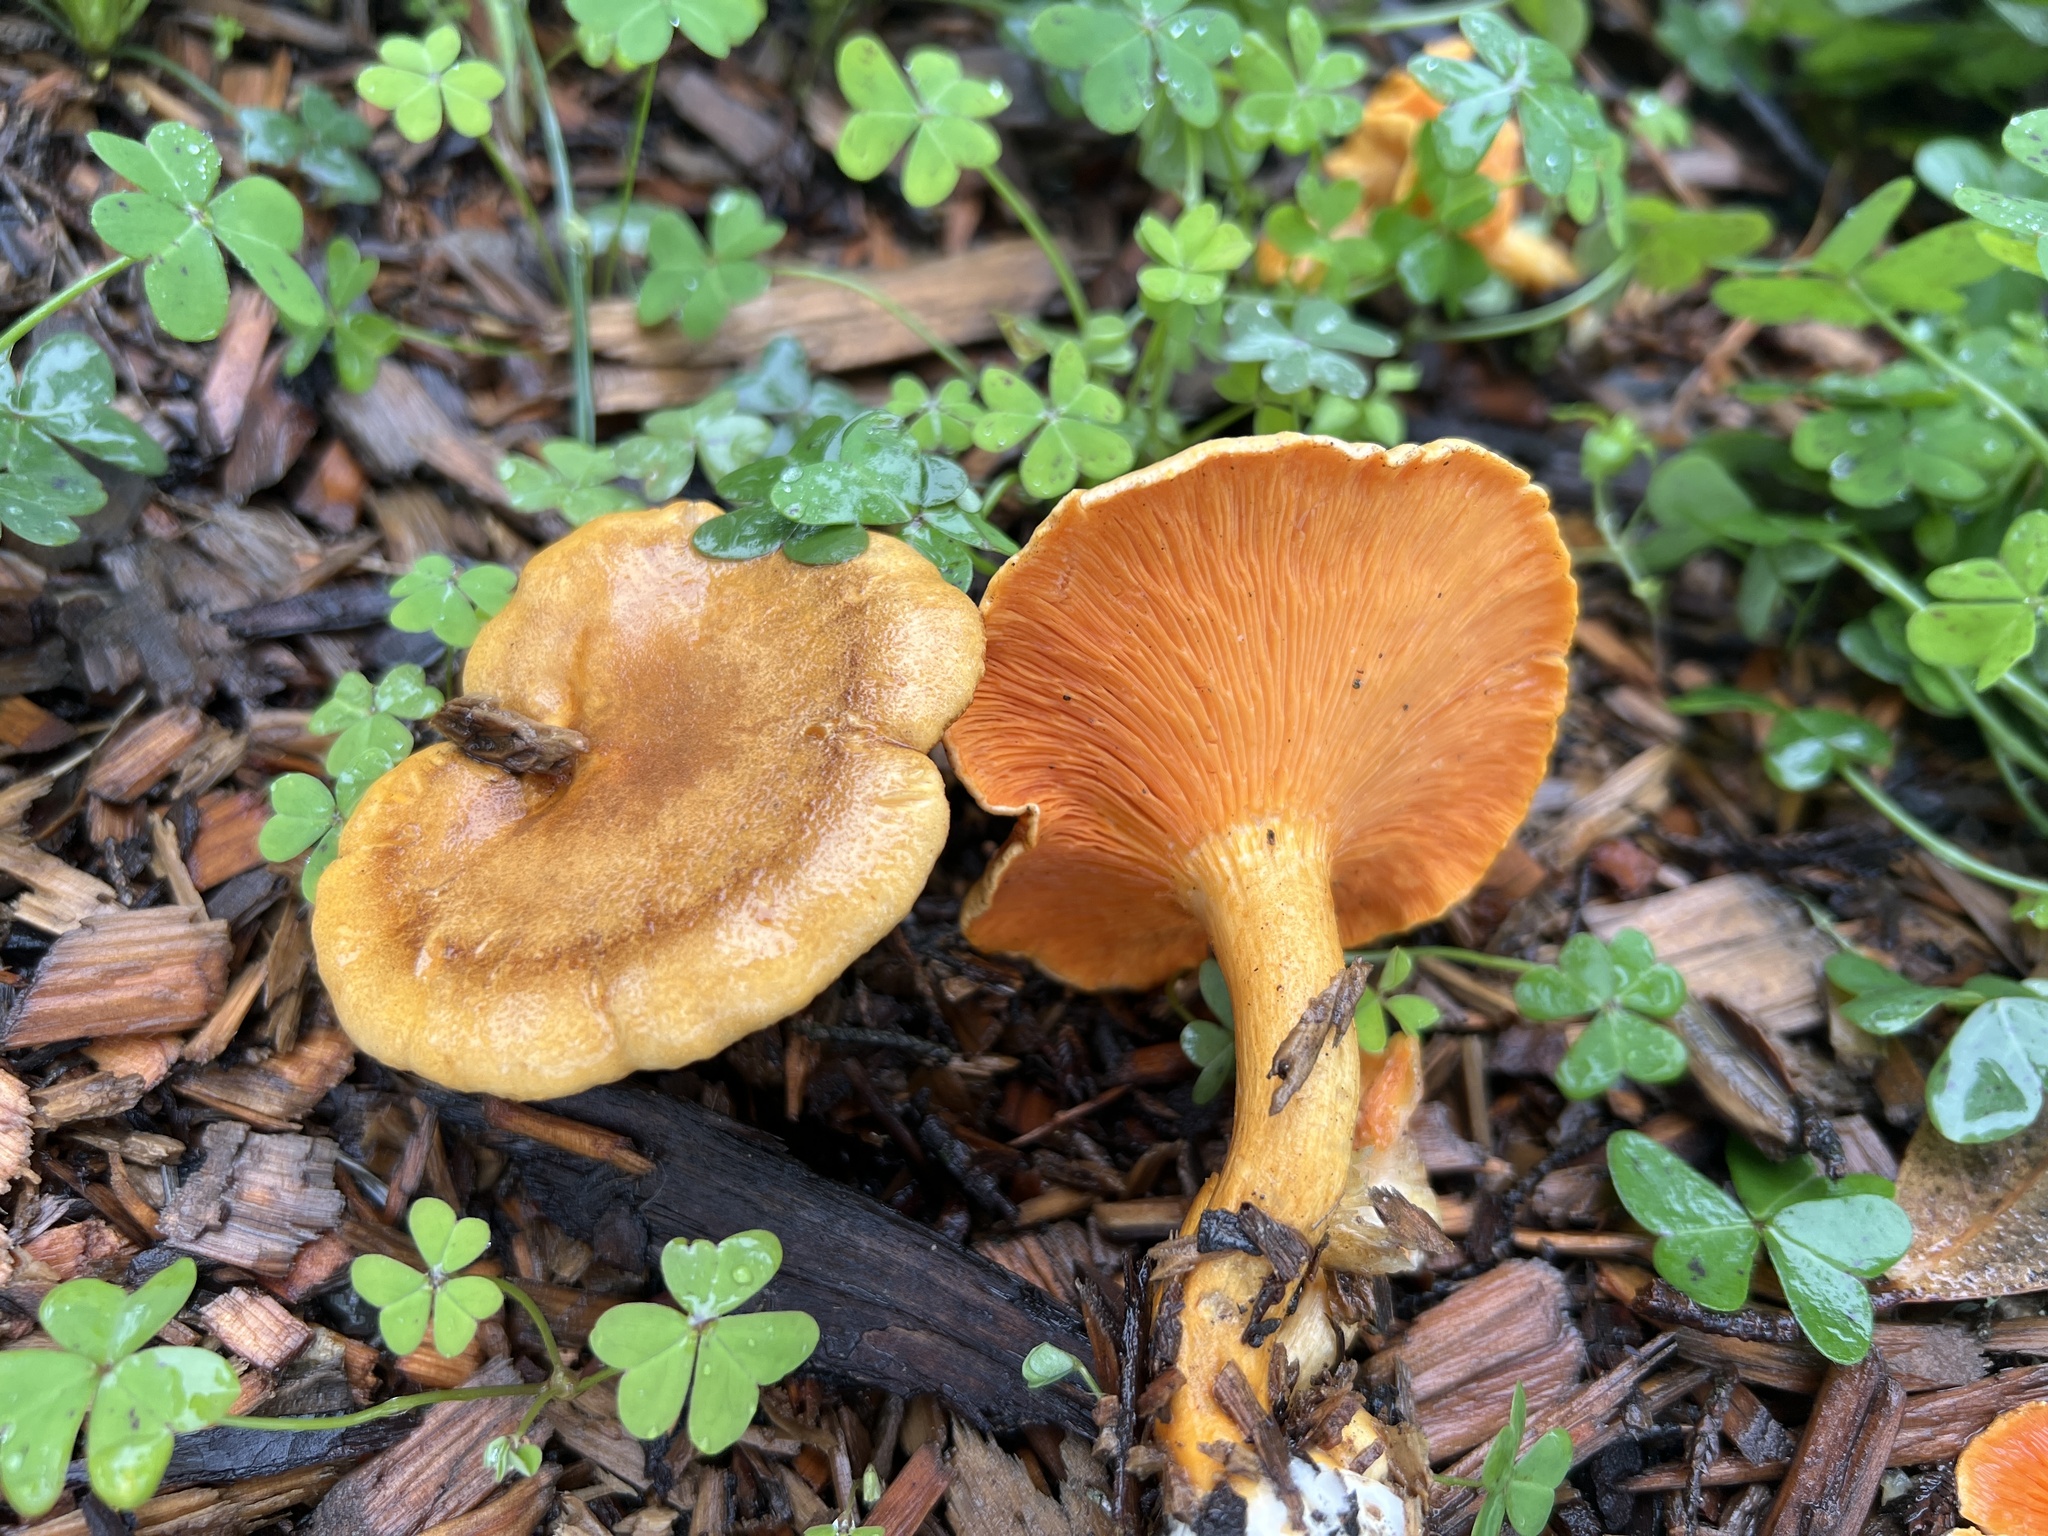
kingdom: Fungi
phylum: Basidiomycota
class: Agaricomycetes
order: Boletales
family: Hygrophoropsidaceae
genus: Hygrophoropsis
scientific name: Hygrophoropsis aurantiaca
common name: False chanterelle
